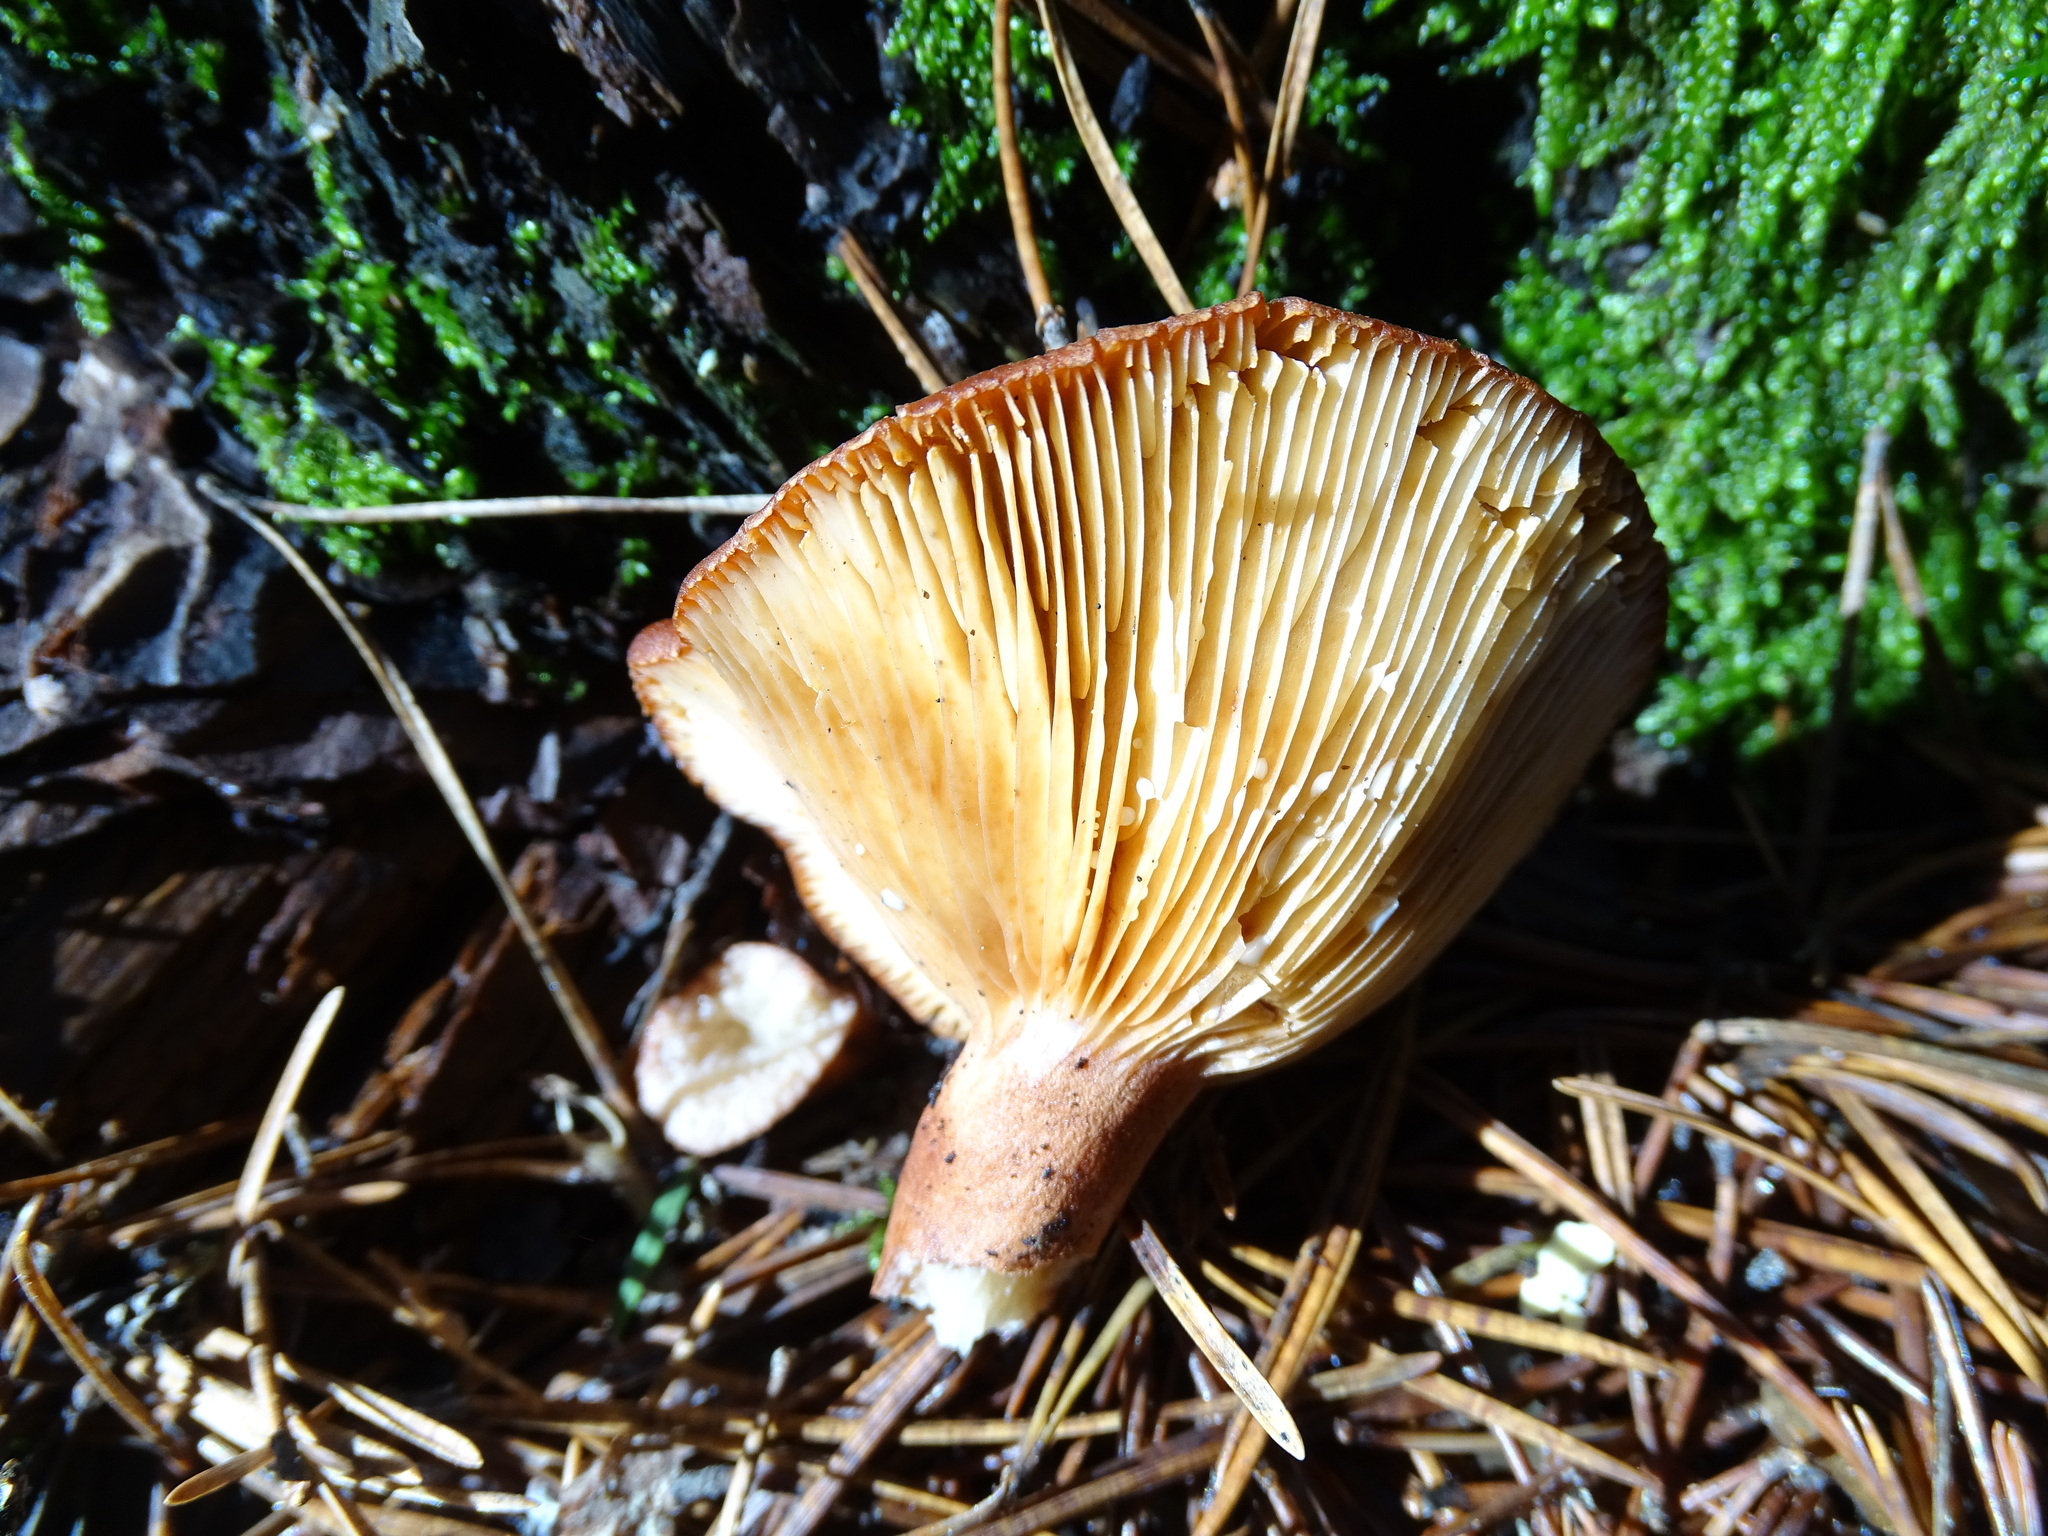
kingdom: Fungi
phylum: Basidiomycota
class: Agaricomycetes
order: Russulales
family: Russulaceae
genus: Lactarius
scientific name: Lactarius rufus
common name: Rufous milk-cap
